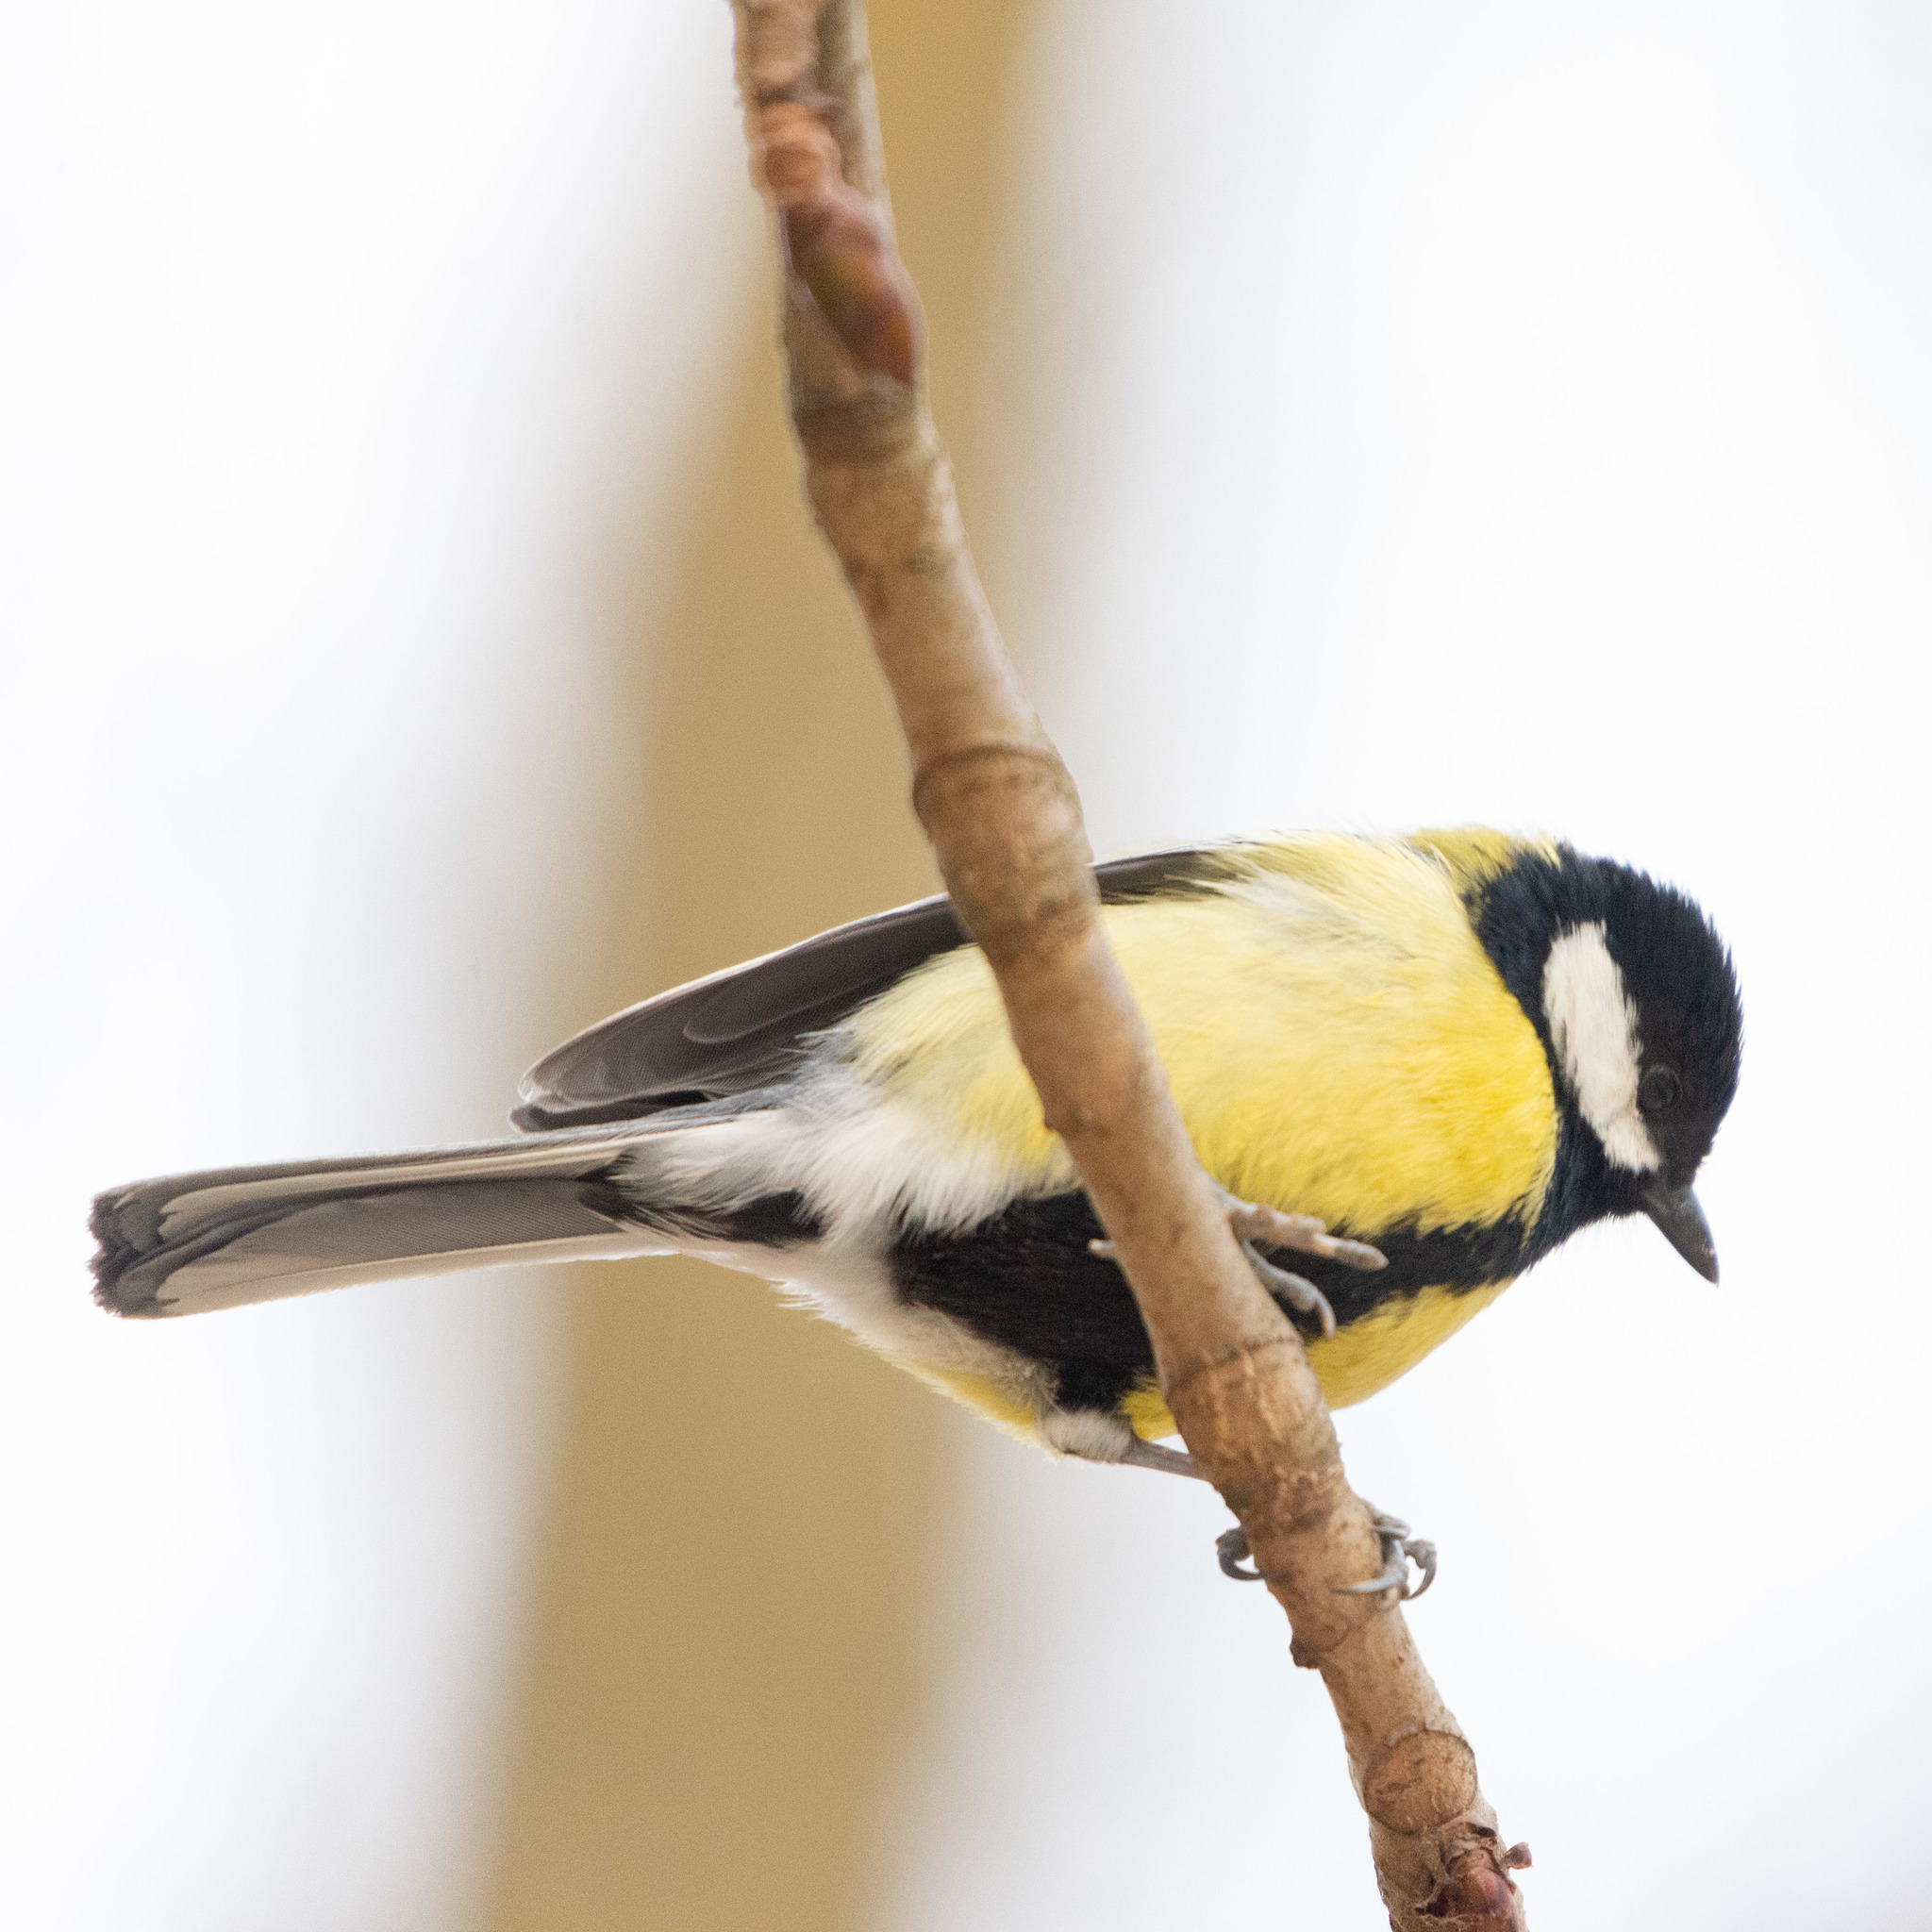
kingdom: Animalia
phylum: Chordata
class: Aves
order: Passeriformes
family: Paridae
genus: Parus
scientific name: Parus major
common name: Great tit
